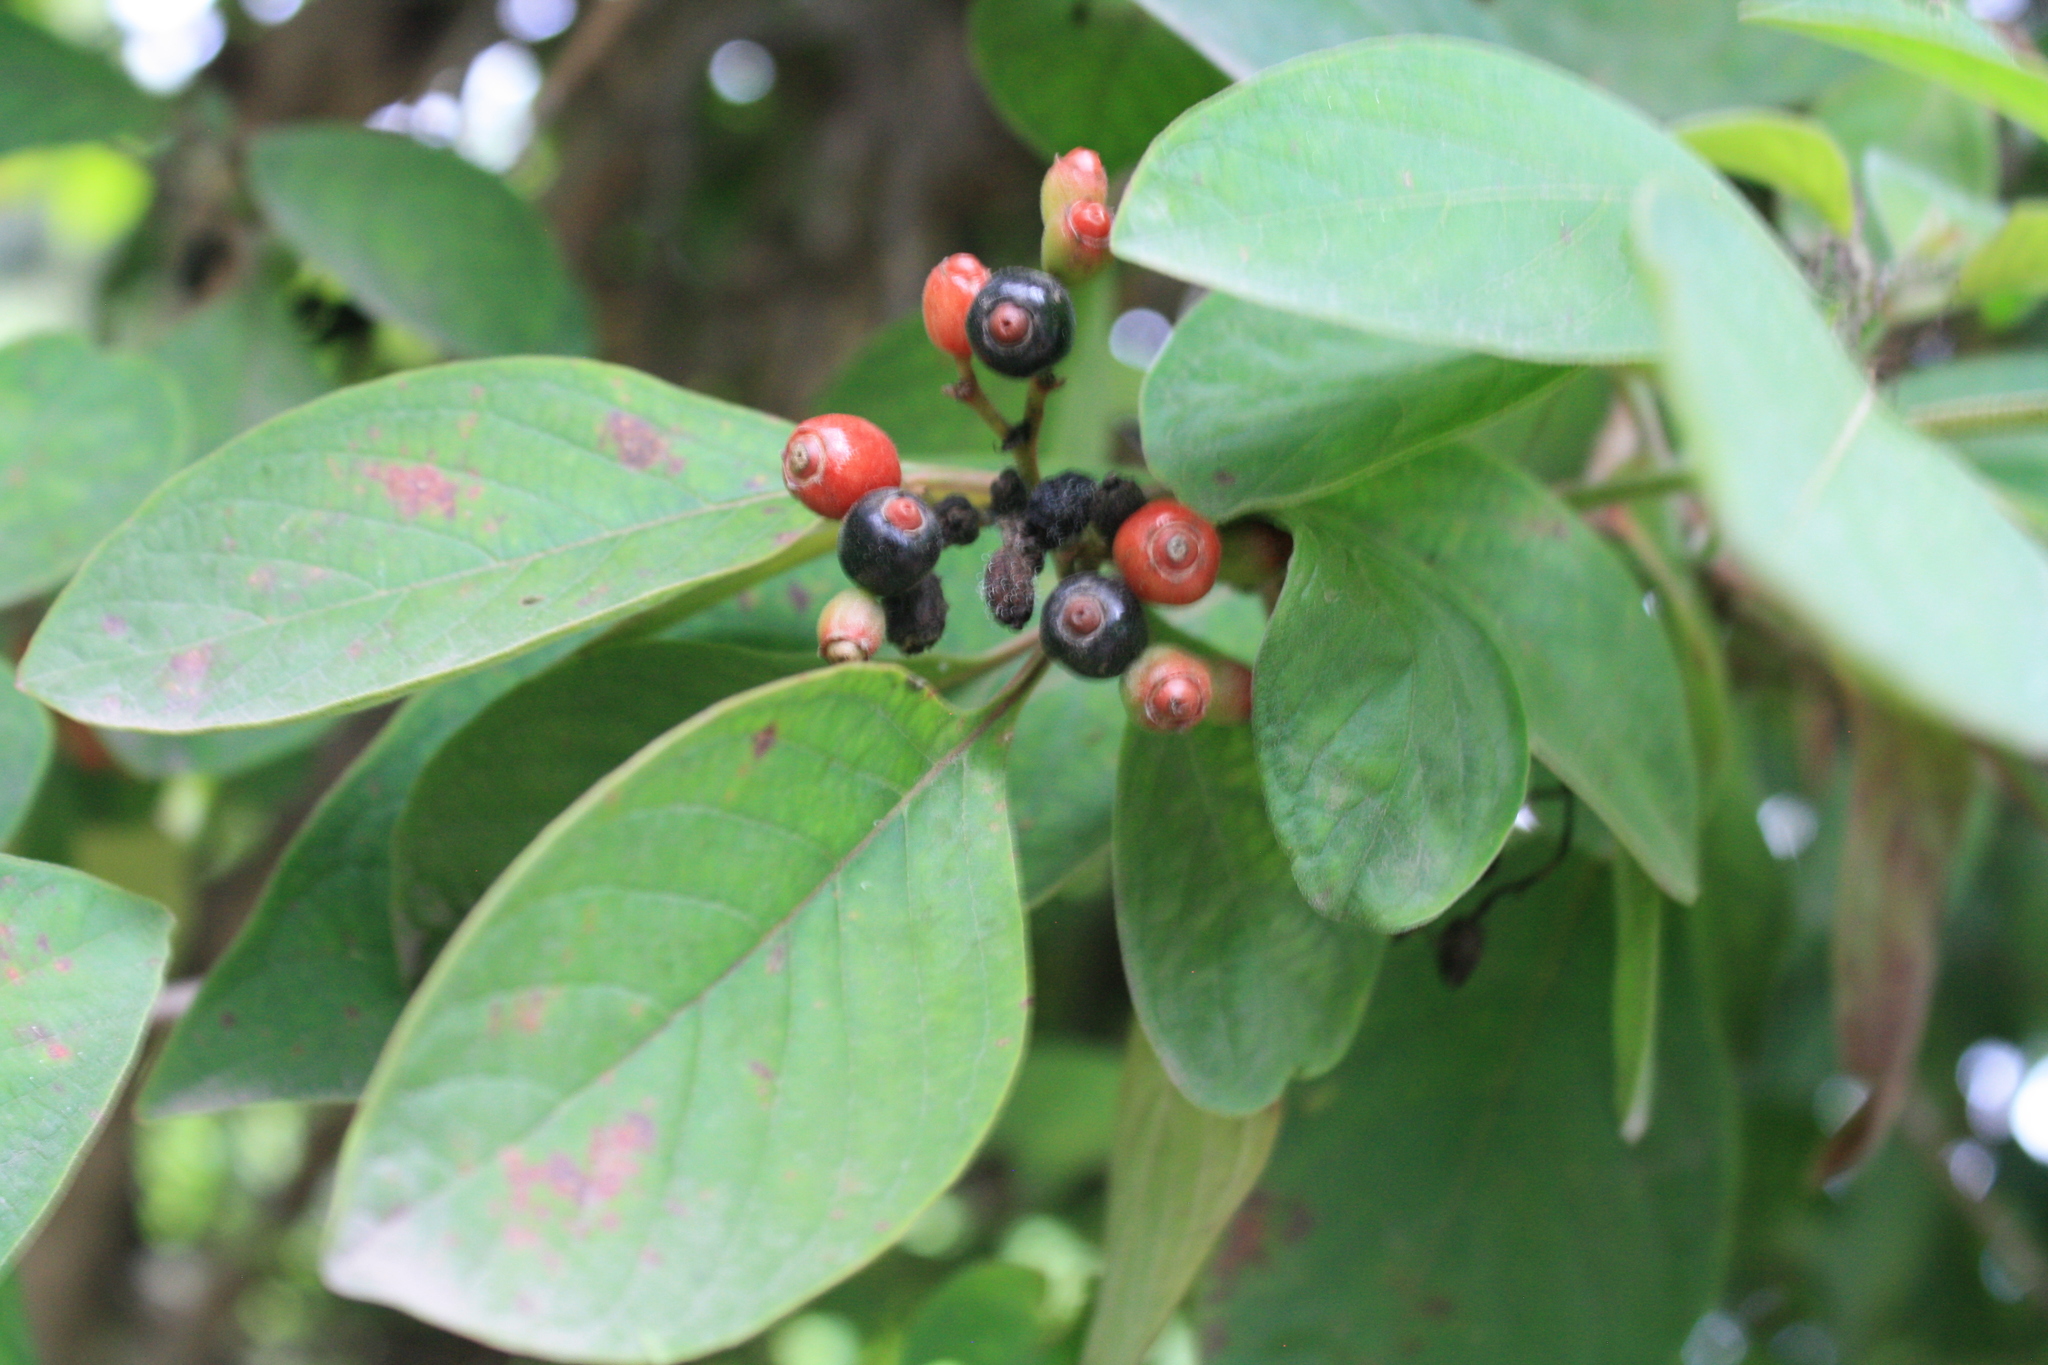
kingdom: Plantae
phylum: Tracheophyta
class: Magnoliopsida
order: Gentianales
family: Rubiaceae
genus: Hamelia
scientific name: Hamelia patens
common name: Redhead
